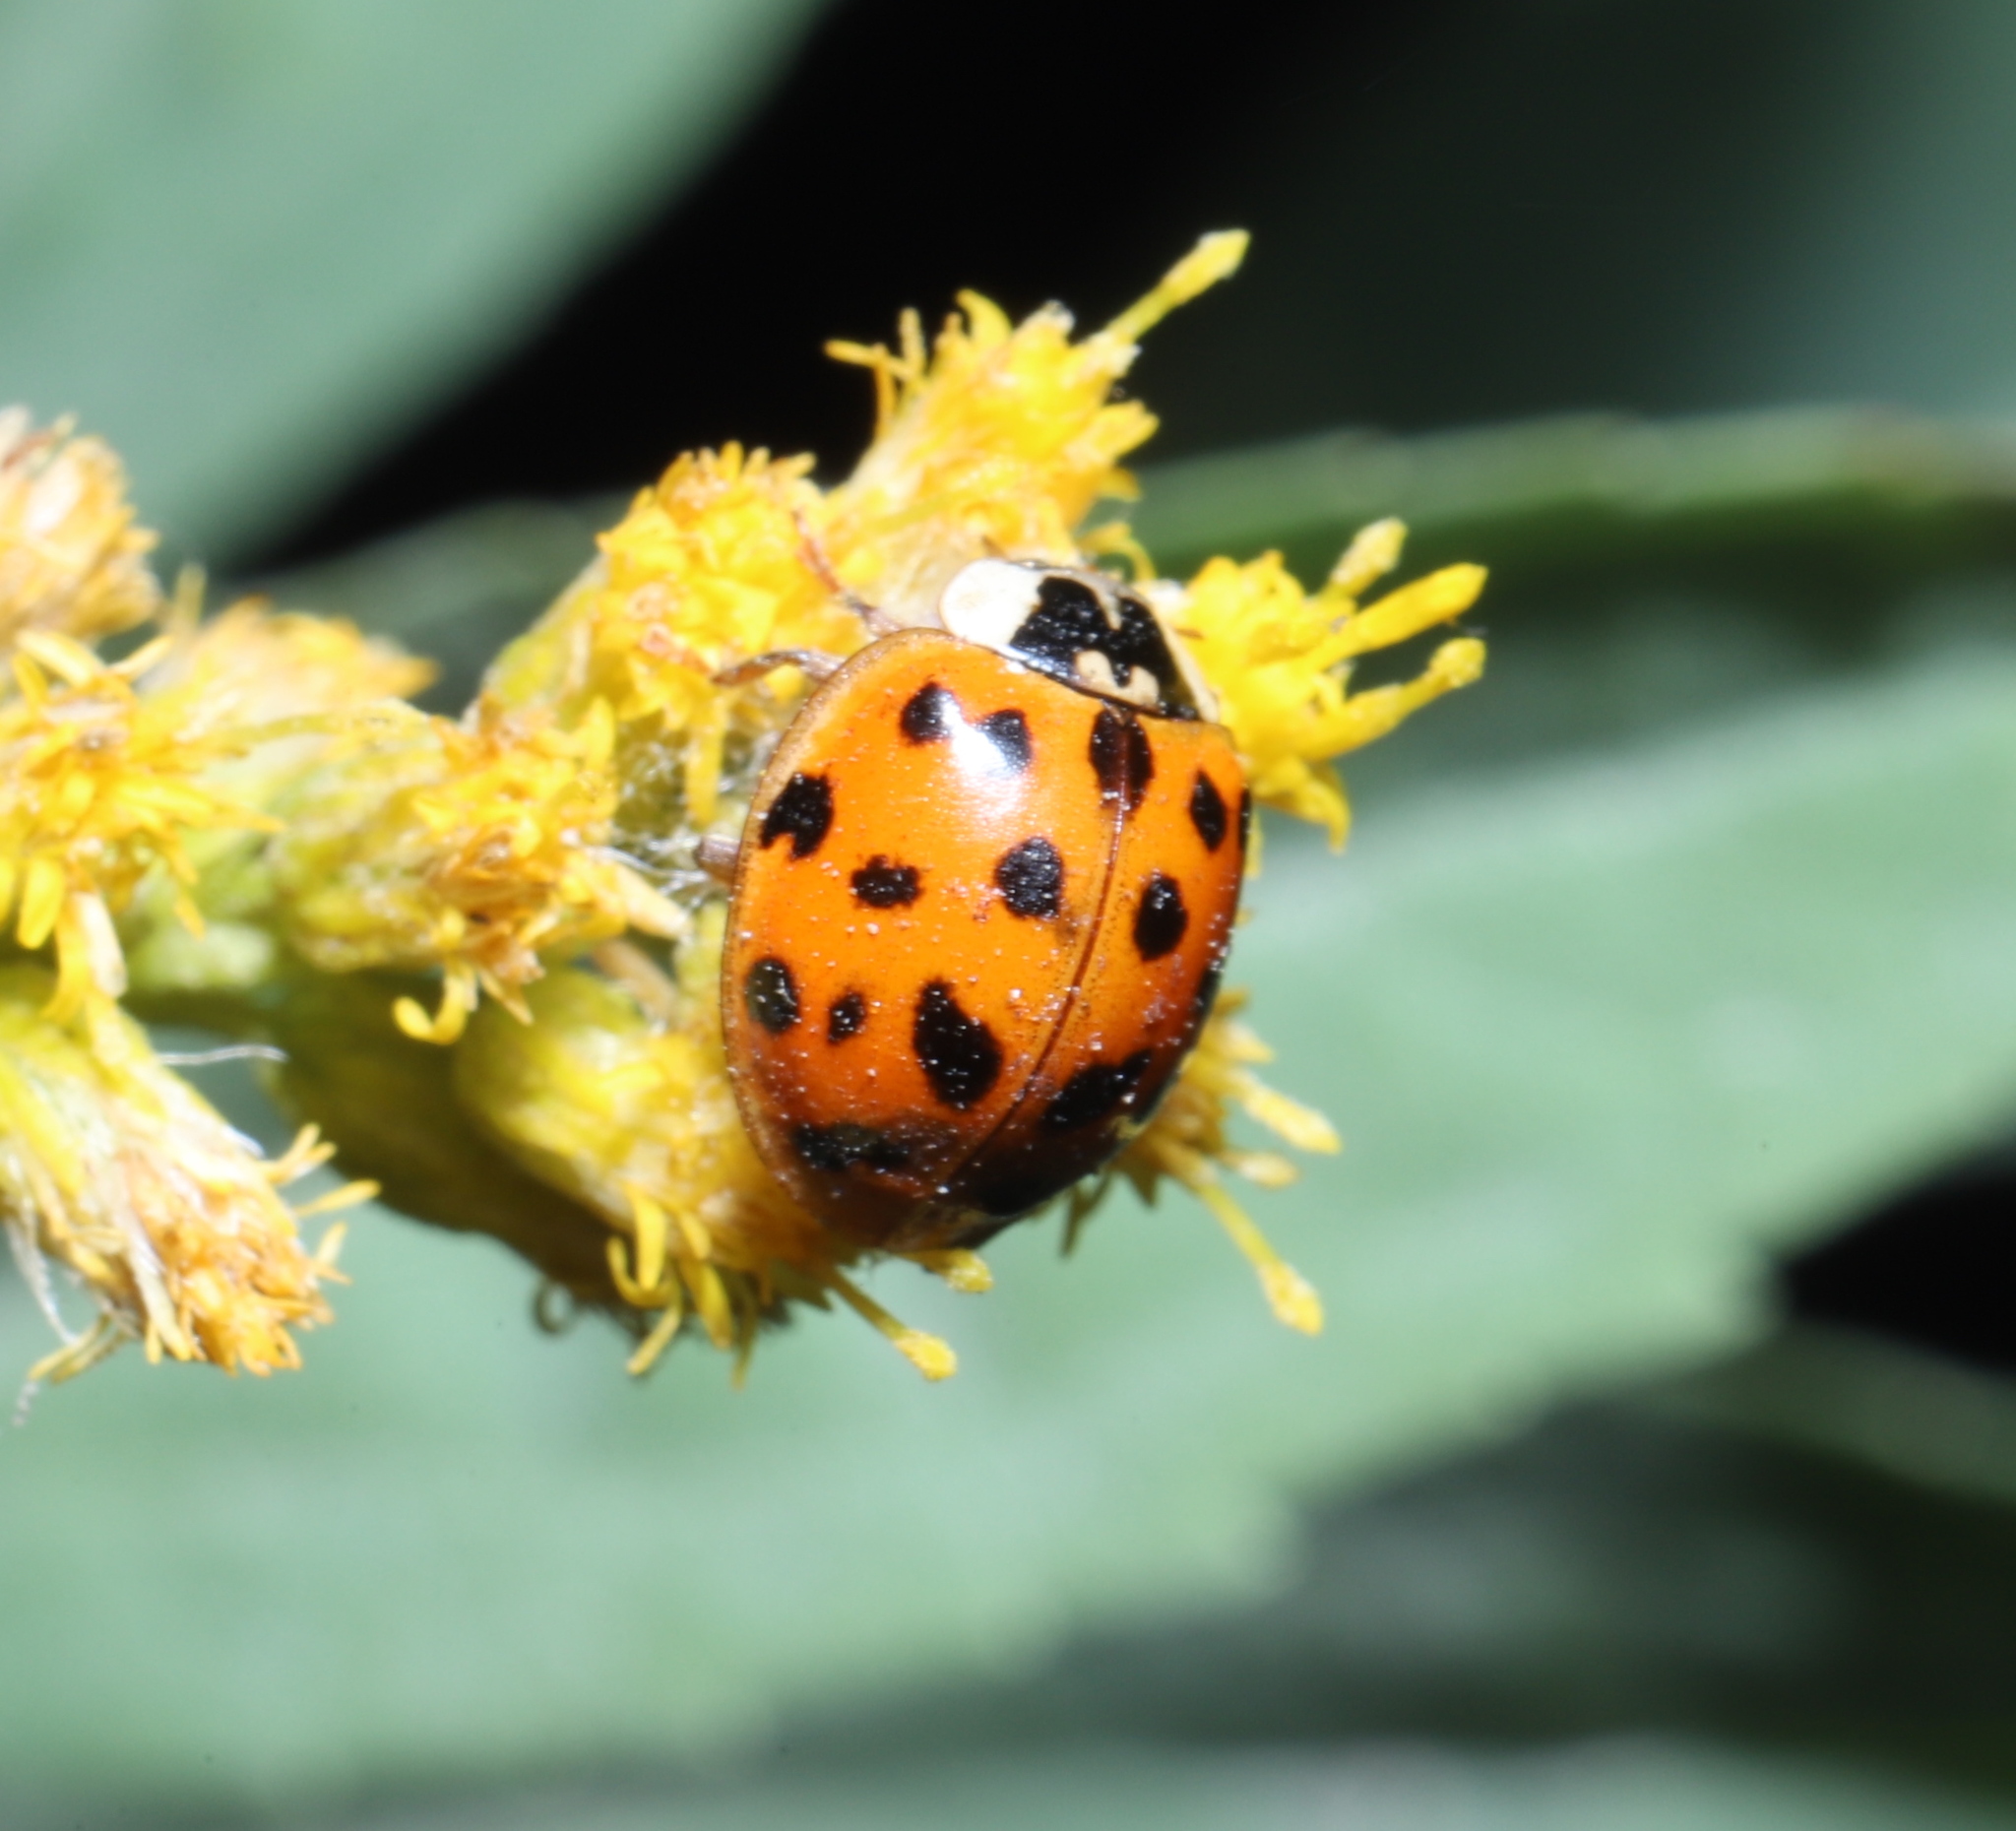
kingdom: Animalia
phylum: Arthropoda
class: Insecta
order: Coleoptera
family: Coccinellidae
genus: Harmonia
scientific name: Harmonia axyridis
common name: Harlequin ladybird
